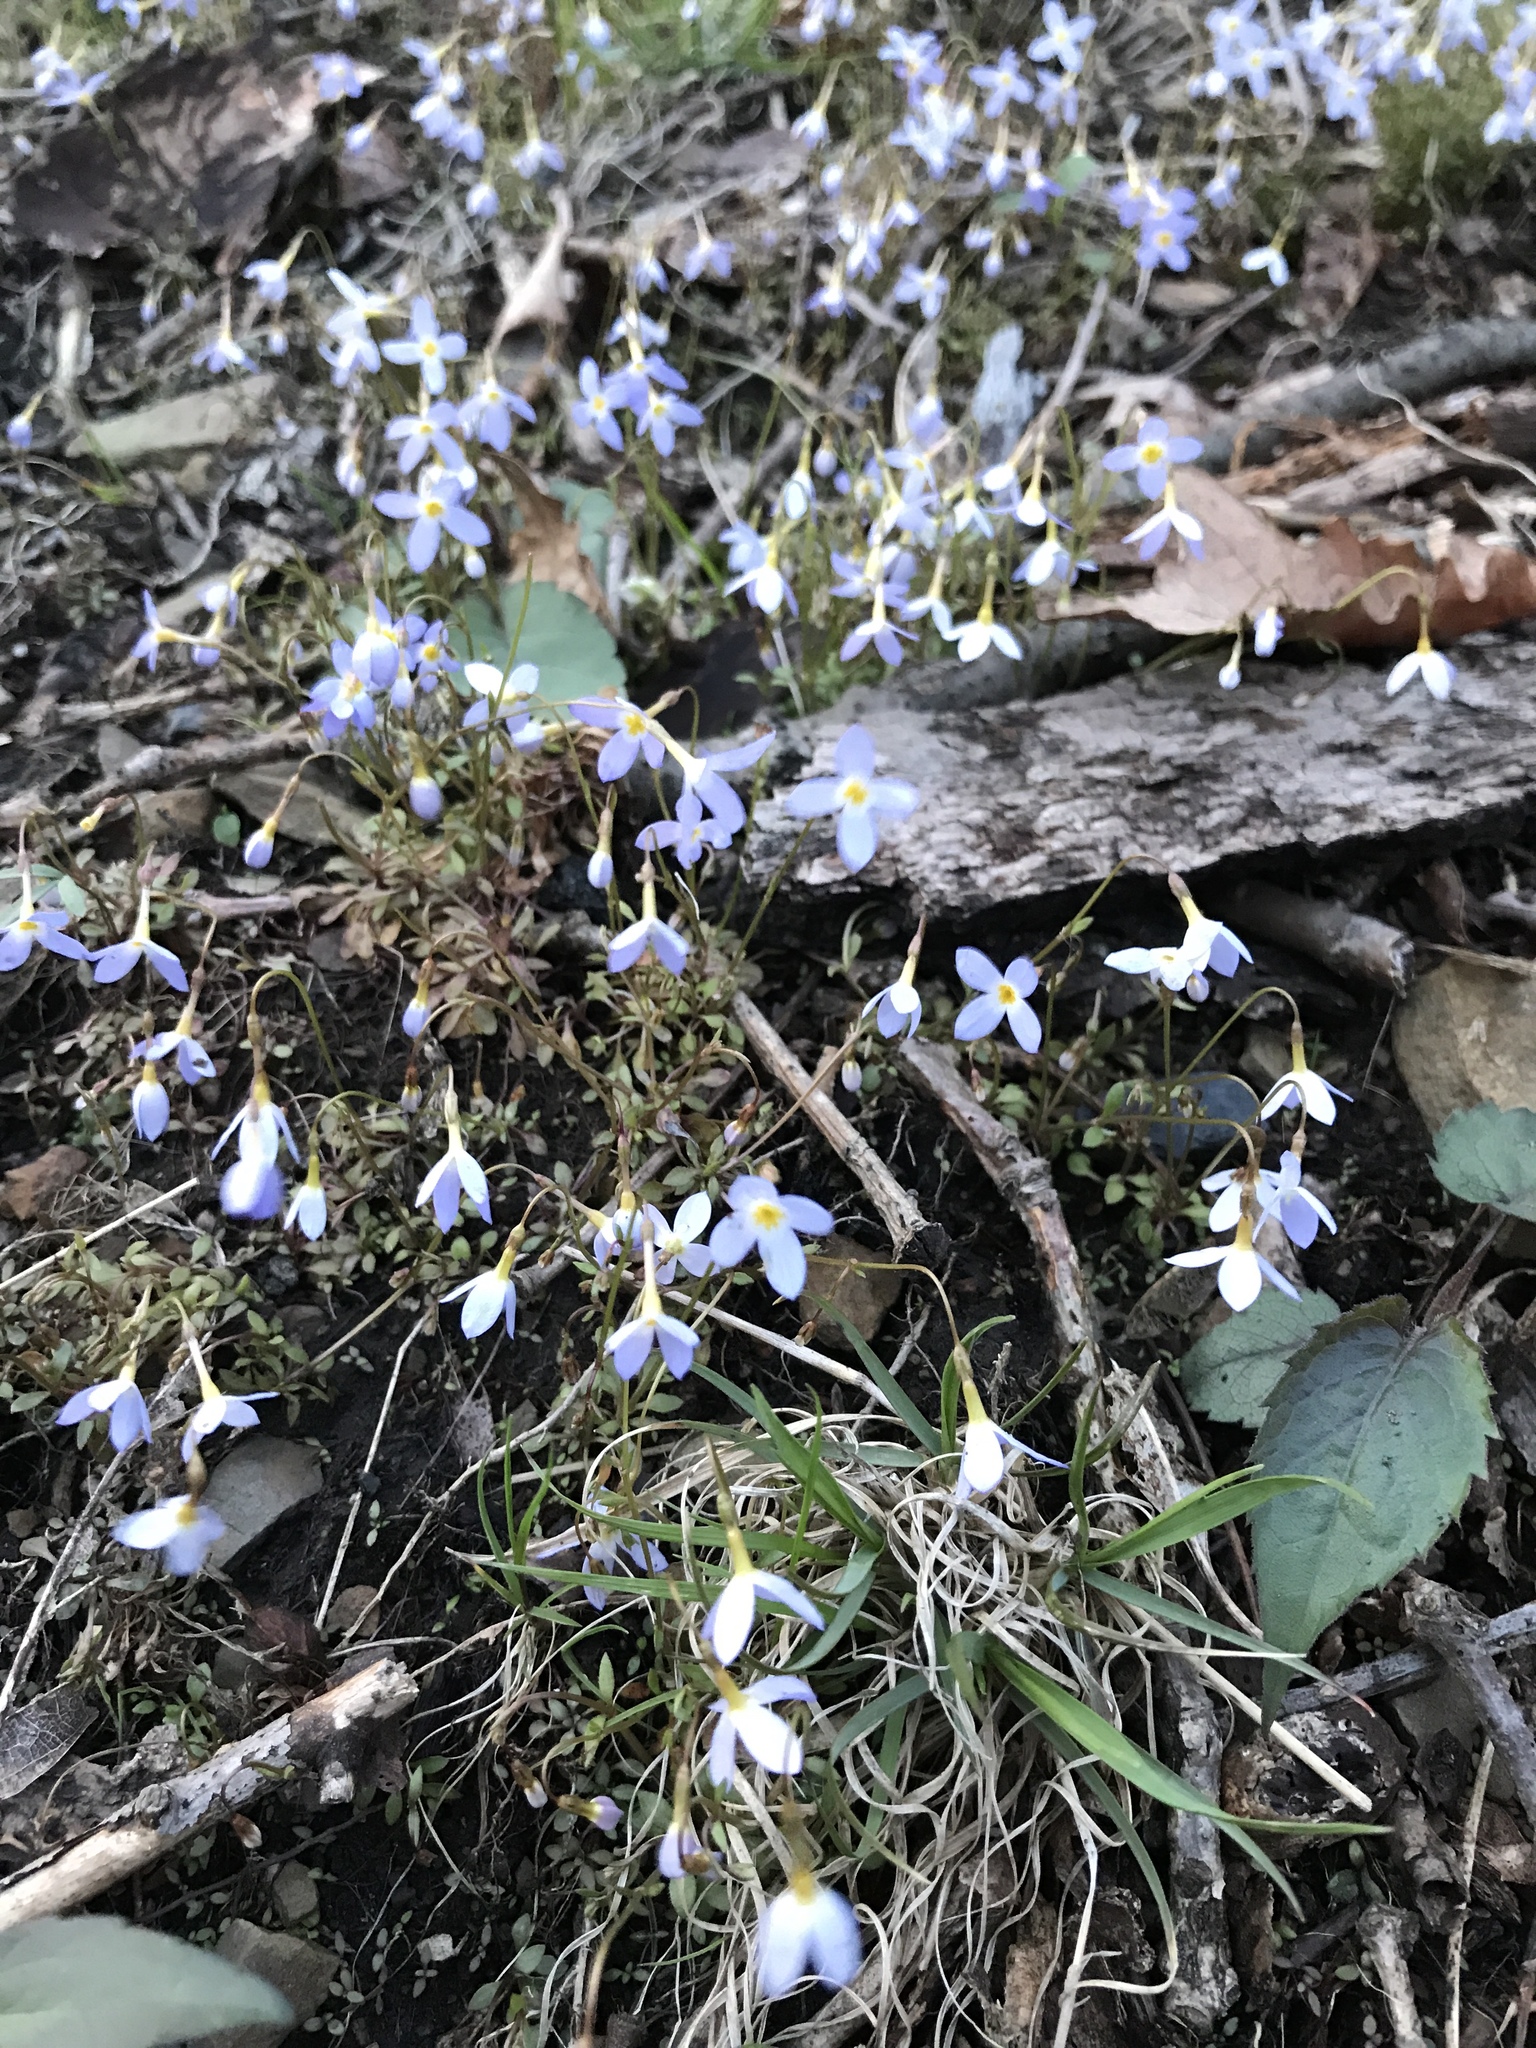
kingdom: Plantae
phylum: Tracheophyta
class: Magnoliopsida
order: Gentianales
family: Rubiaceae
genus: Houstonia
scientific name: Houstonia caerulea
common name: Bluets
